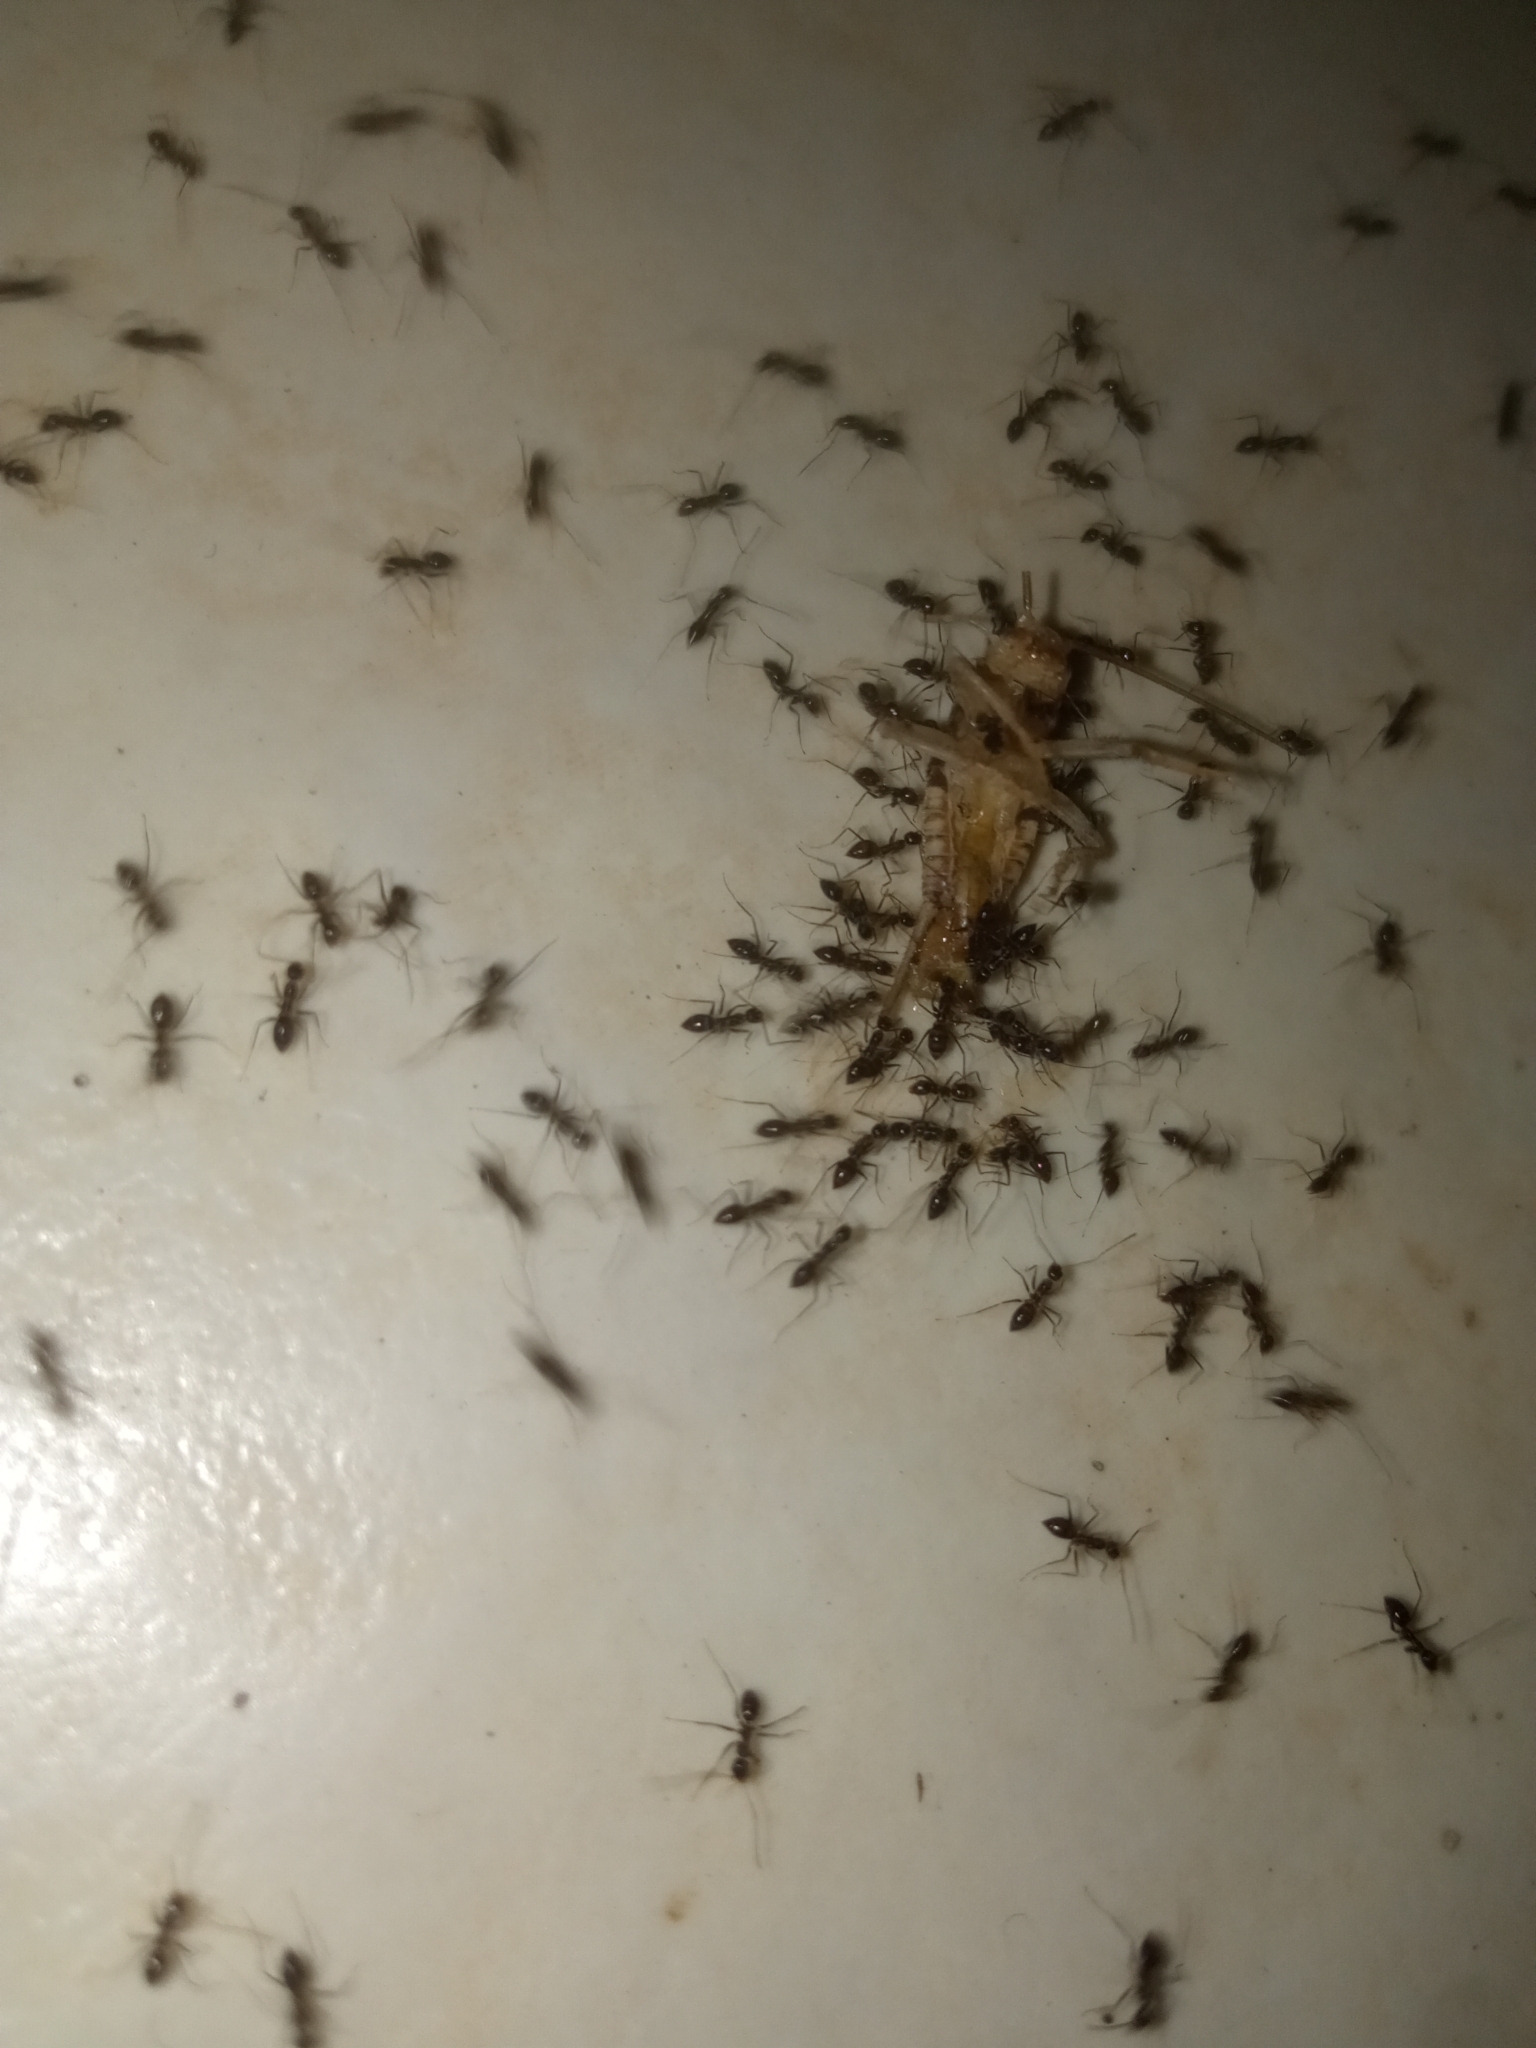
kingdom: Animalia
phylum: Arthropoda
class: Insecta
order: Hymenoptera
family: Formicidae
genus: Paratrechina
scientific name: Paratrechina longicornis
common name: Longhorned crazy ant
